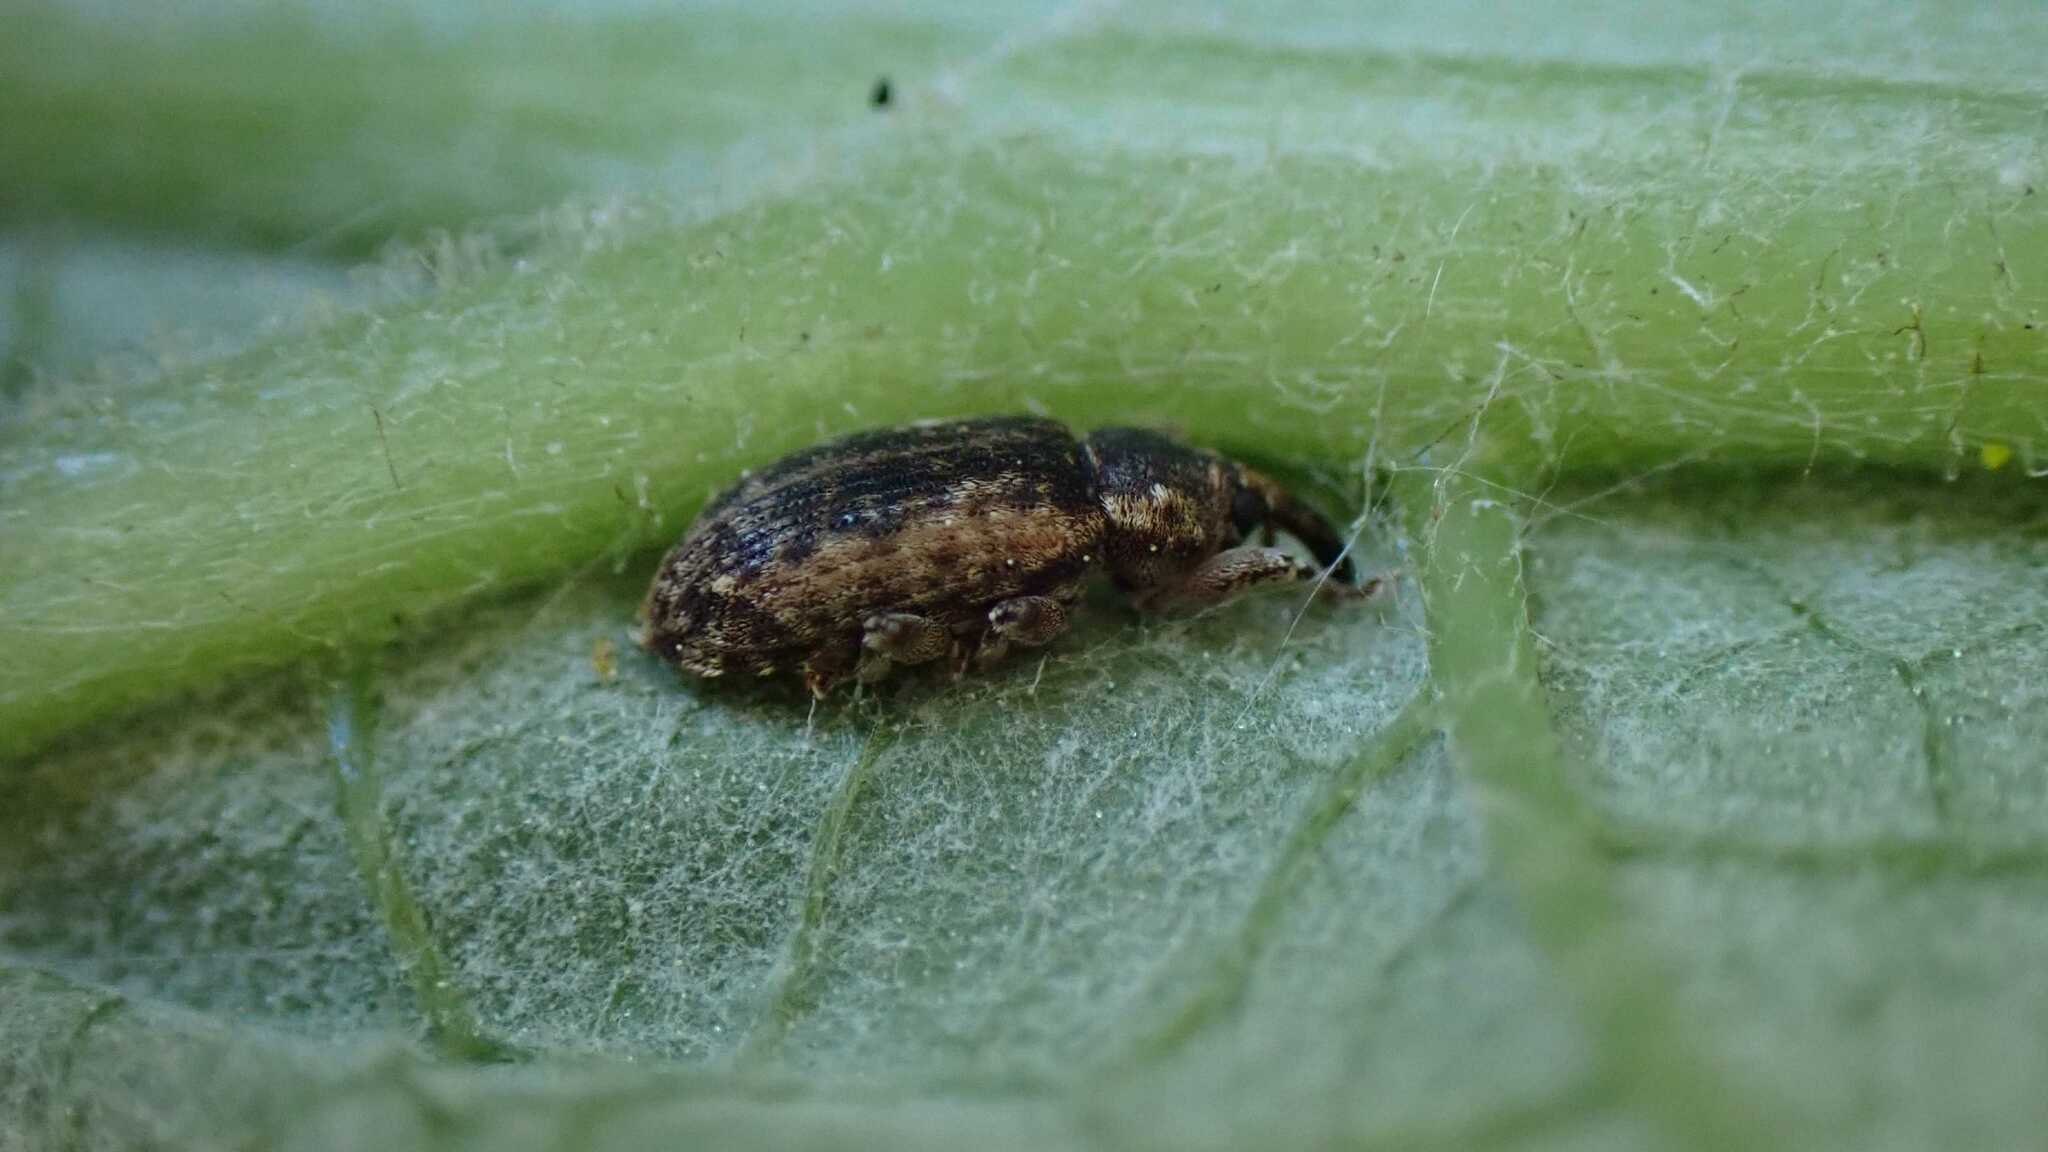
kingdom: Animalia
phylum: Arthropoda
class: Insecta
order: Coleoptera
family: Curculionidae
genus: Dorytomus
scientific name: Dorytomus ictor
